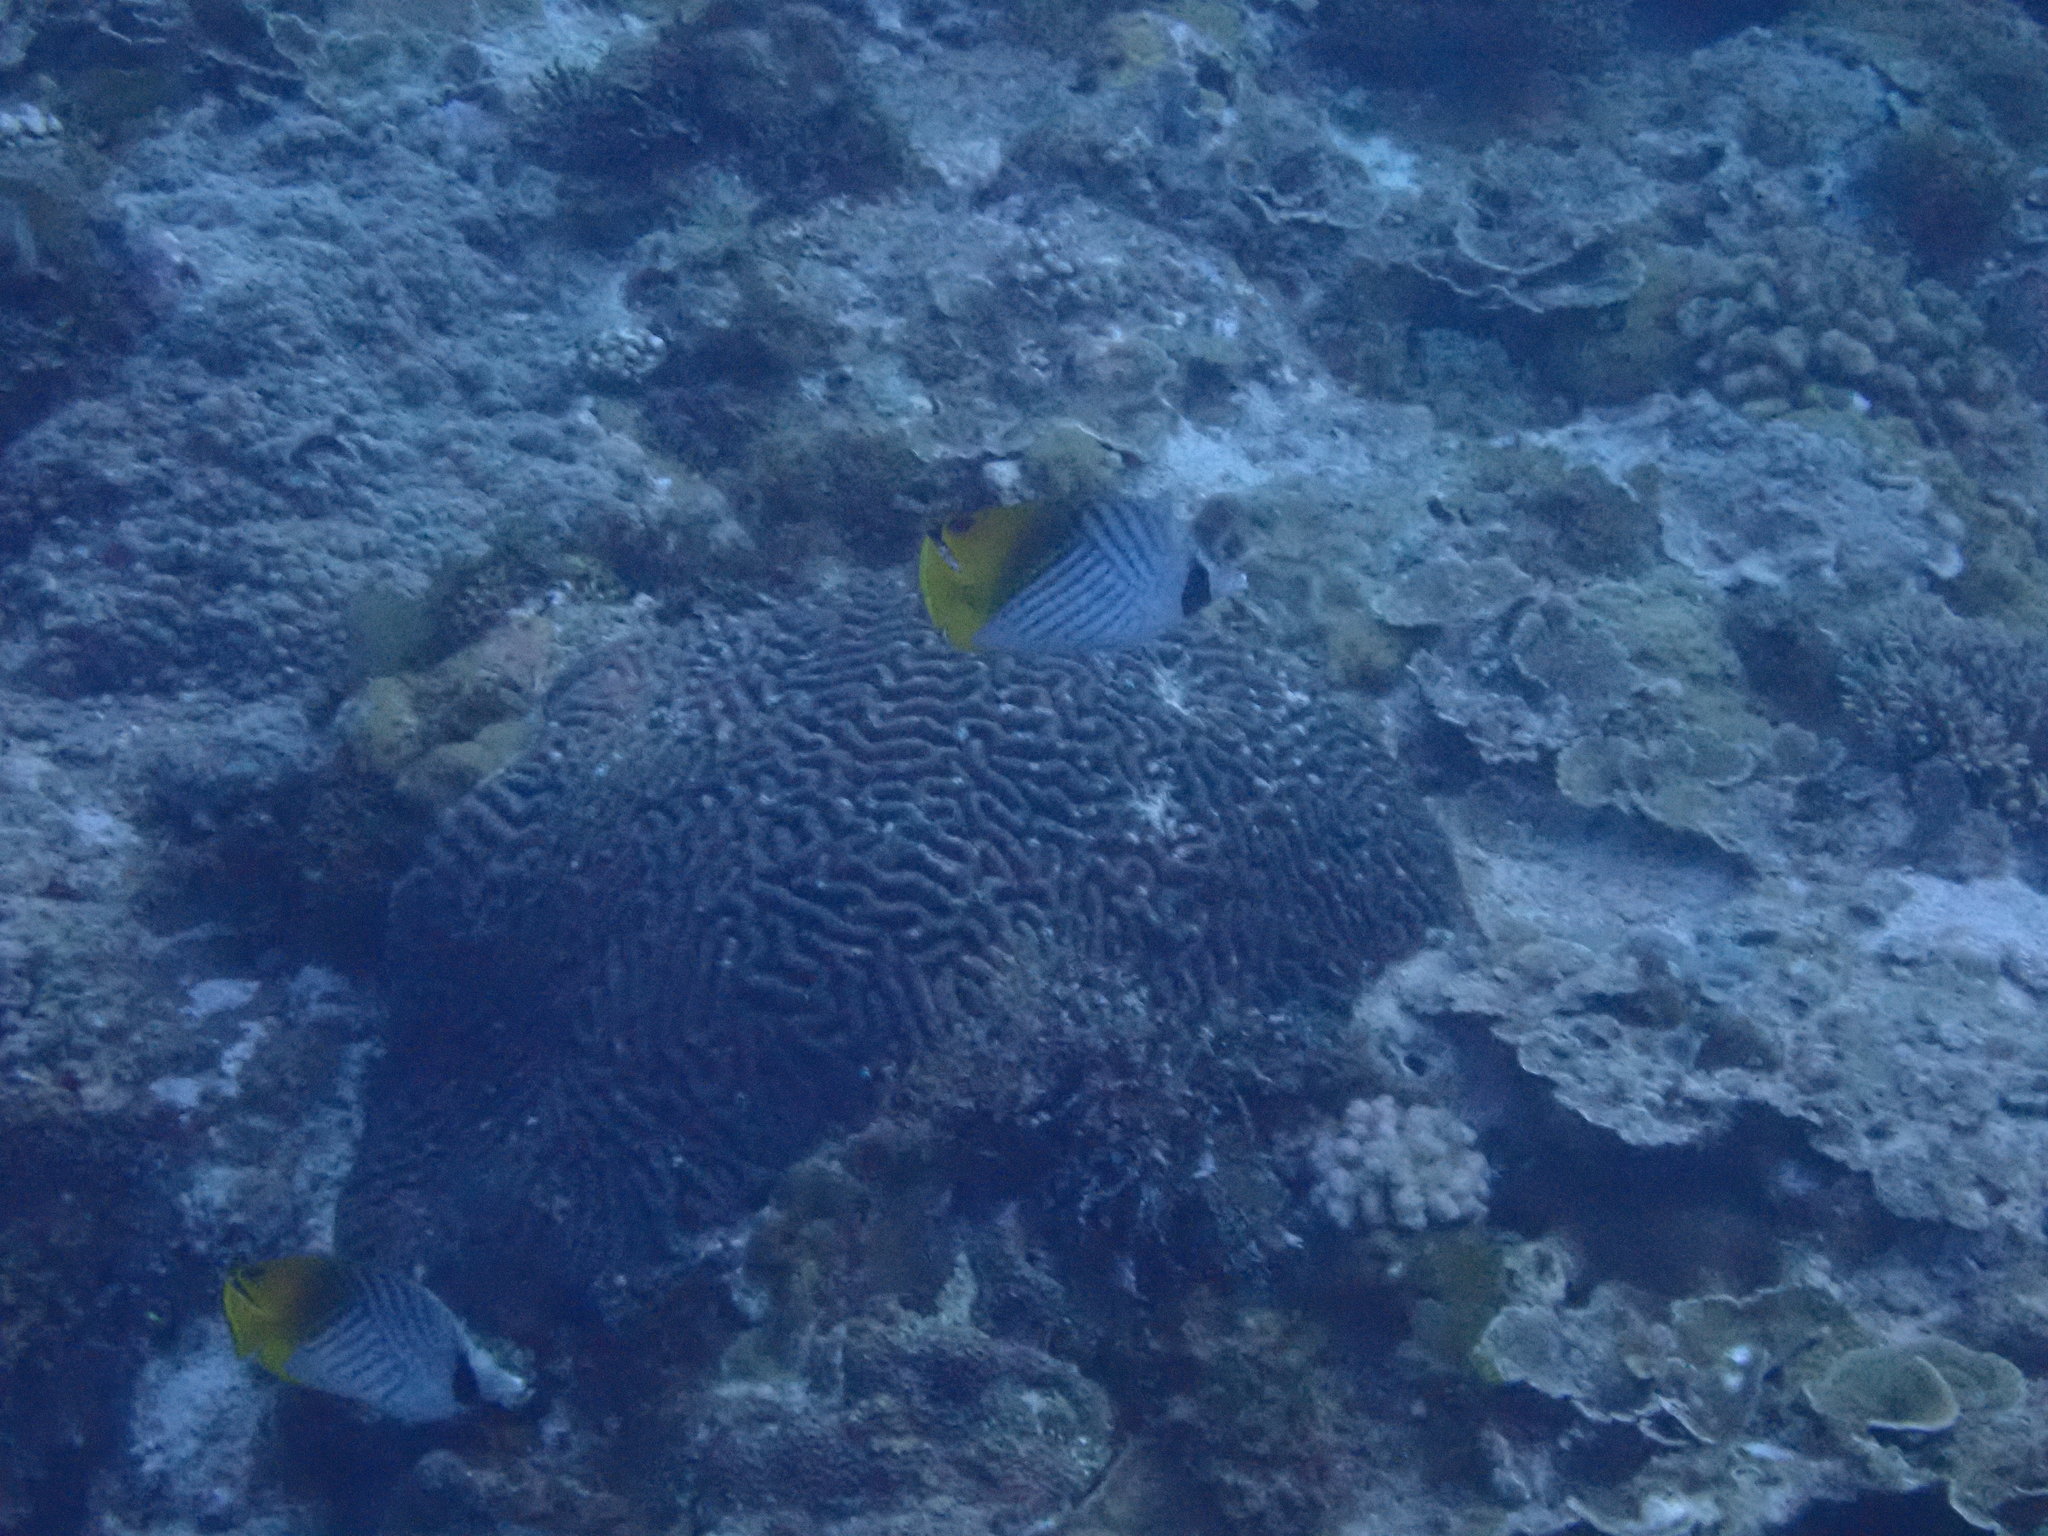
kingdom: Animalia
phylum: Chordata
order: Perciformes
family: Chaetodontidae
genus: Chaetodon
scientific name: Chaetodon auriga
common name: Threadfin butterflyfish
